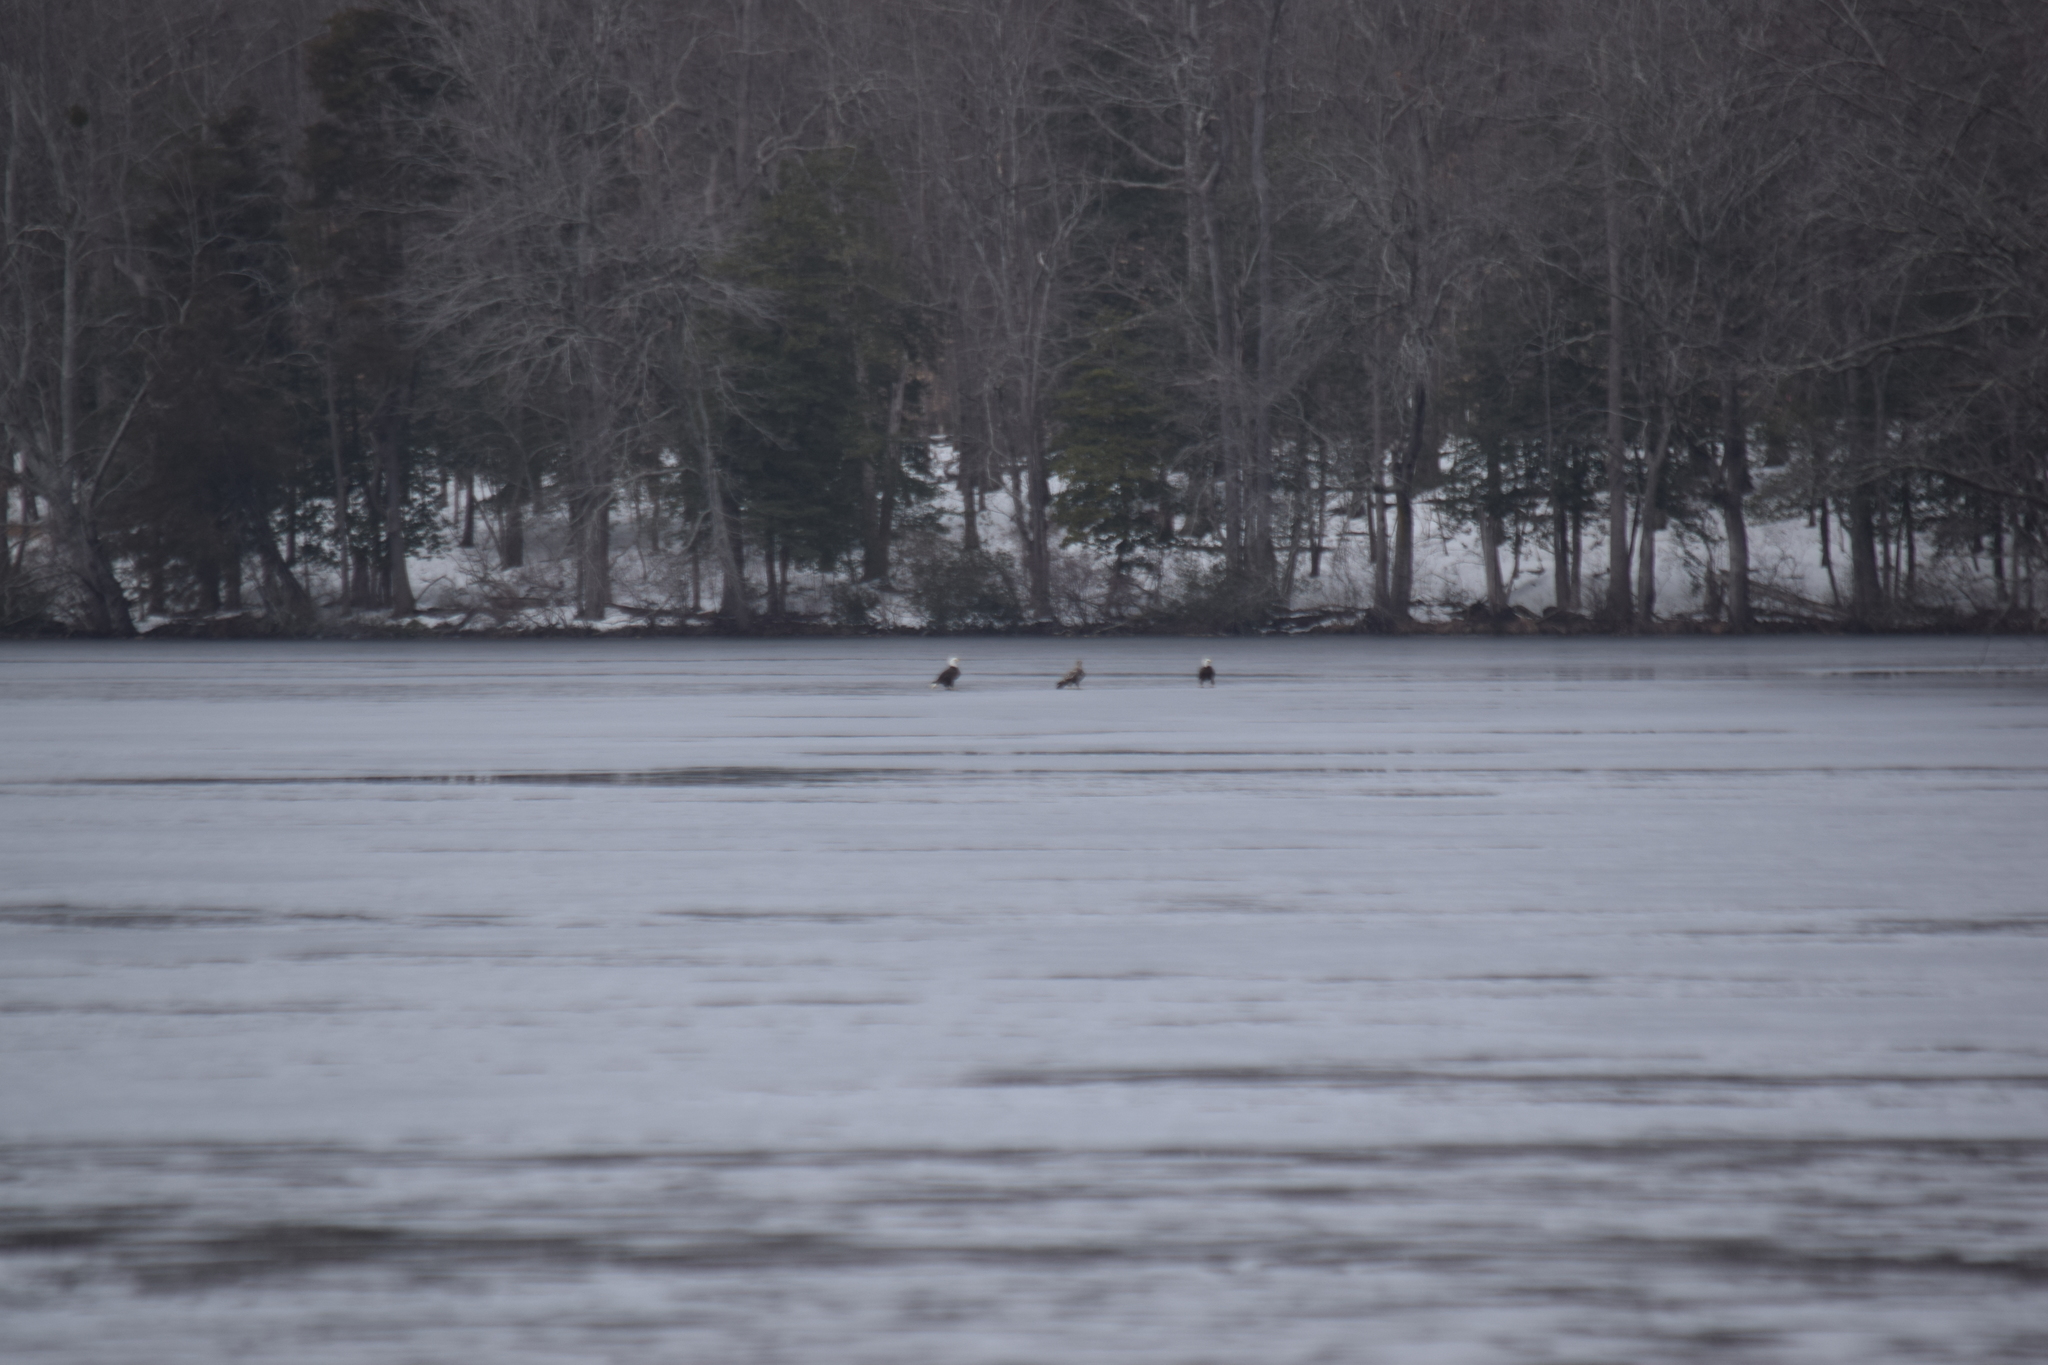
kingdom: Animalia
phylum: Chordata
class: Aves
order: Accipitriformes
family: Accipitridae
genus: Haliaeetus
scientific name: Haliaeetus leucocephalus
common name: Bald eagle
